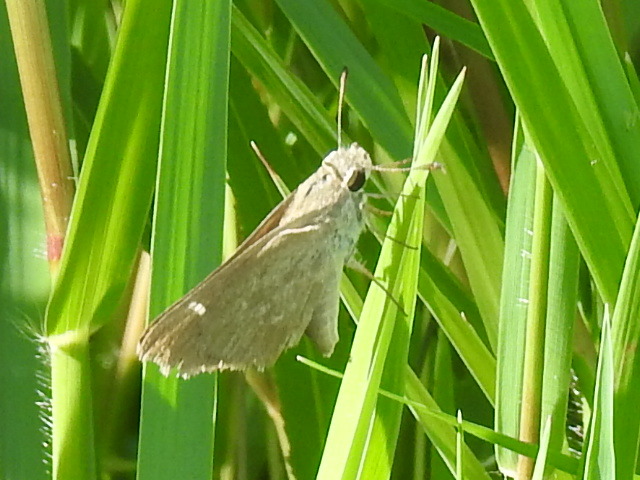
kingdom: Animalia
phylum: Arthropoda
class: Insecta
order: Lepidoptera
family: Hesperiidae
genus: Lerodea
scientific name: Lerodea eufala
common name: Eufala skipper
